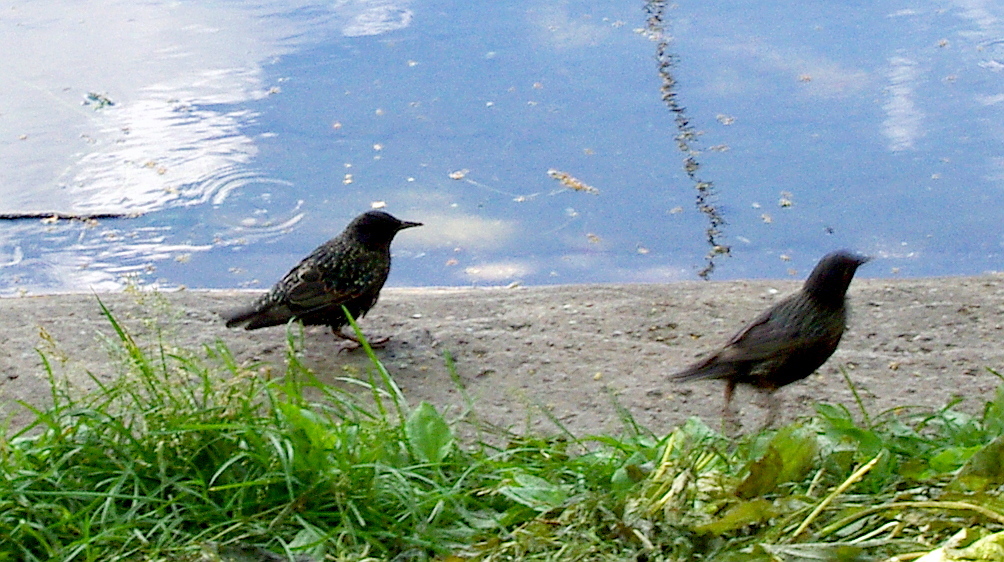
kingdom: Animalia
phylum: Chordata
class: Aves
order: Passeriformes
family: Sturnidae
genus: Sturnus
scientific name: Sturnus vulgaris
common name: Common starling
